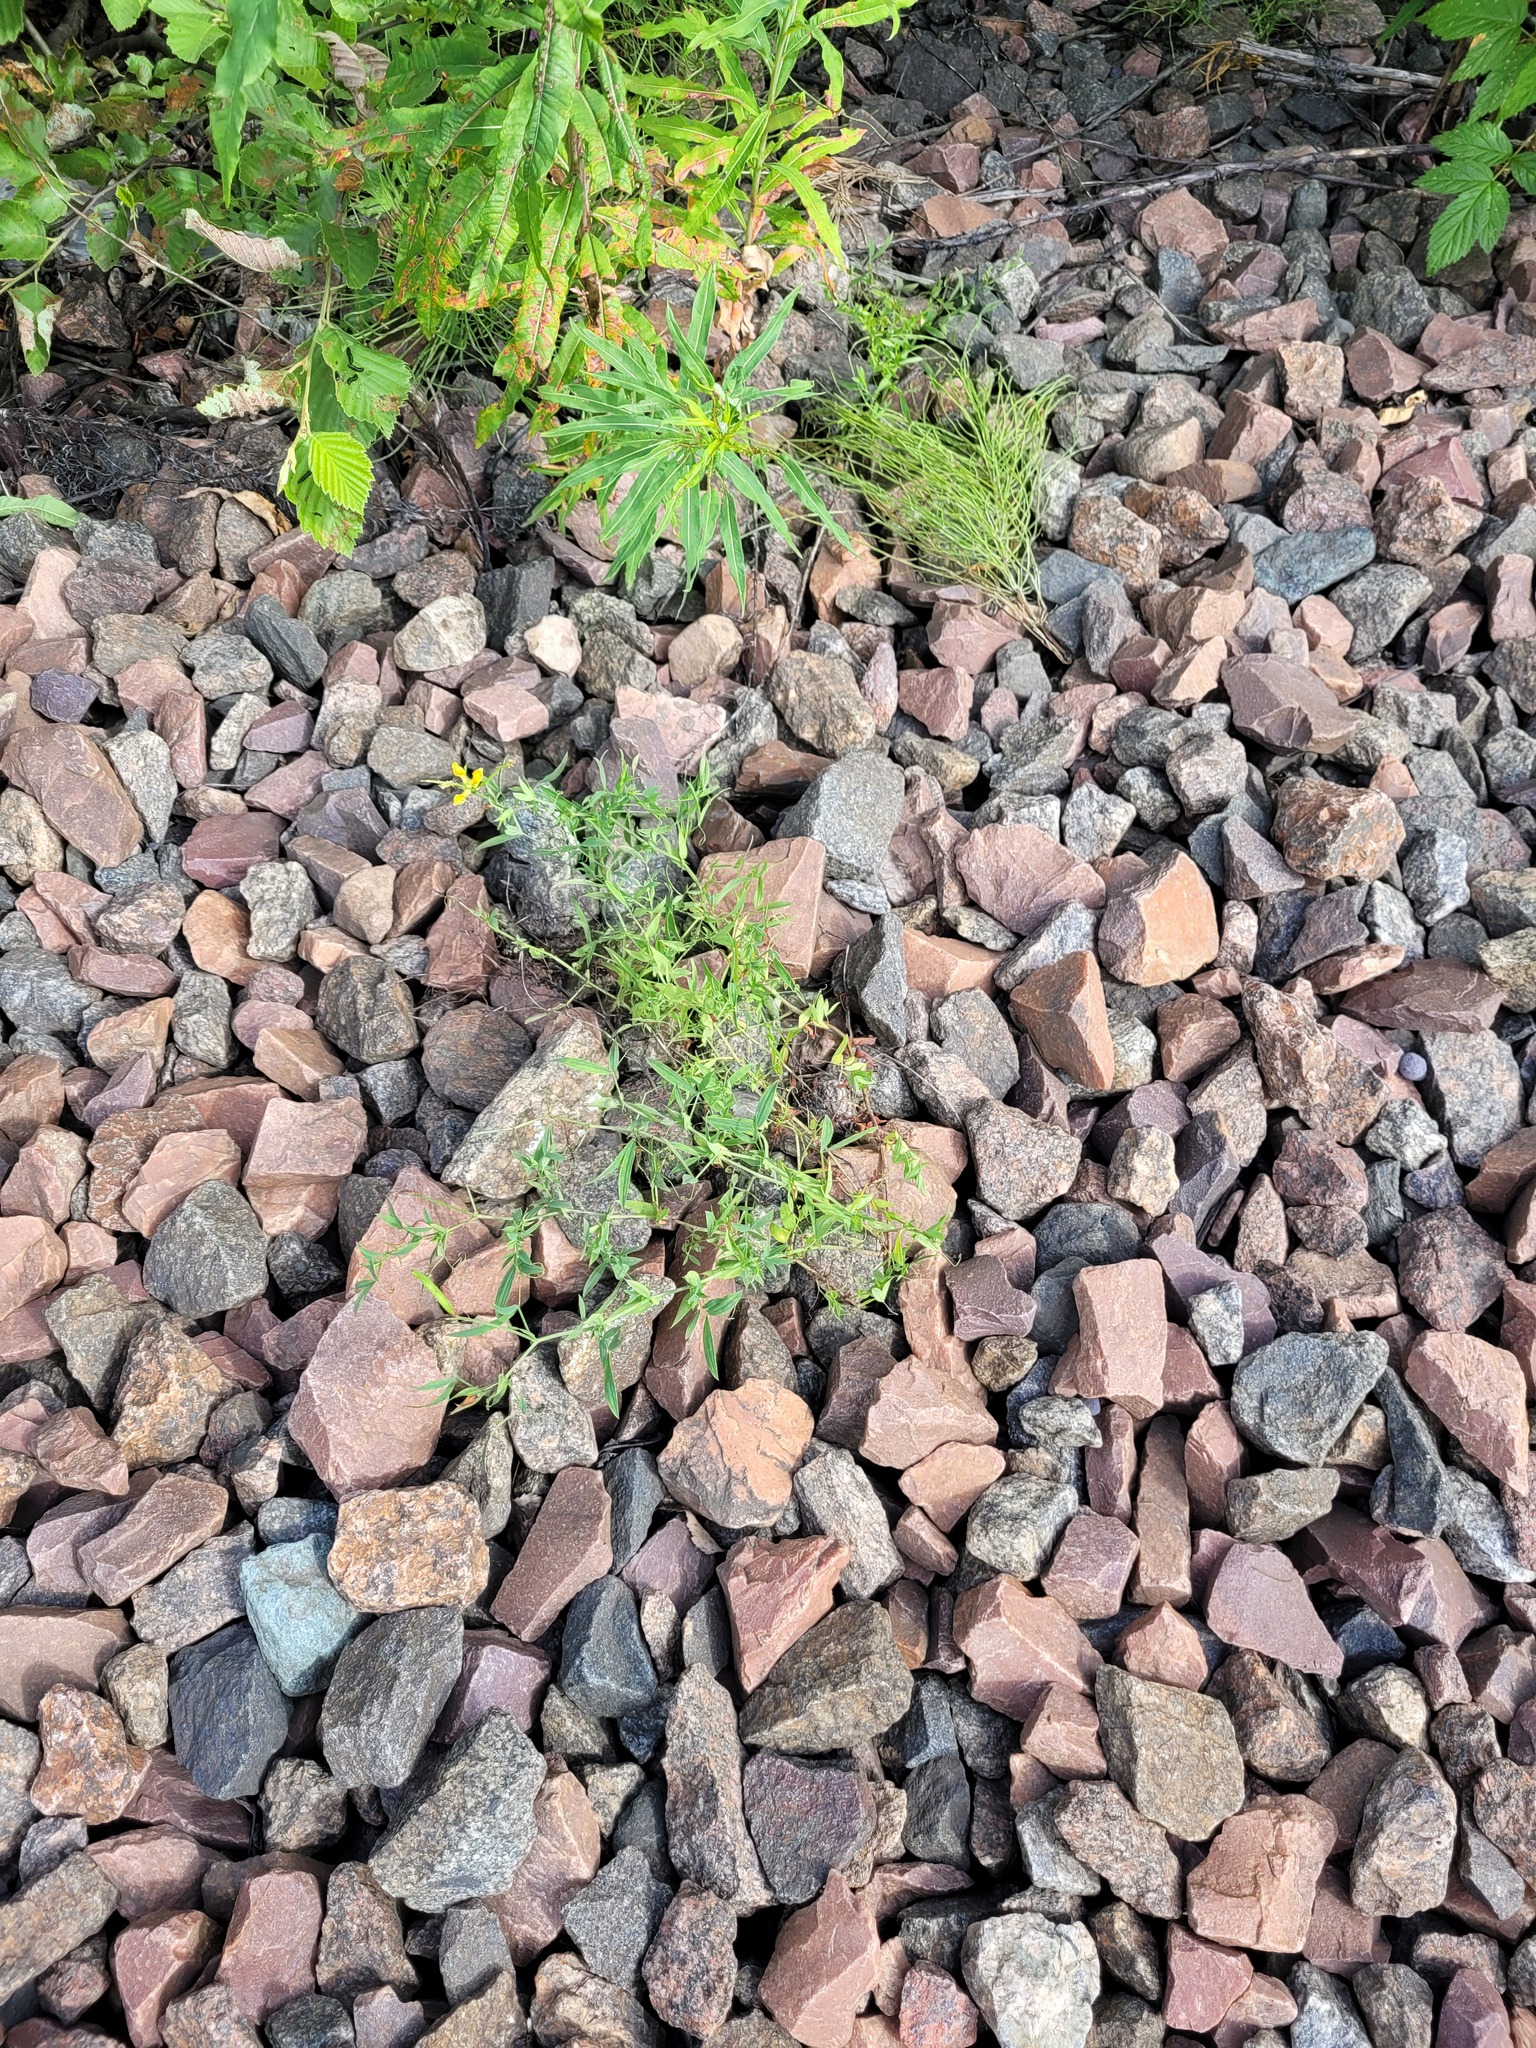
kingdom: Plantae
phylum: Tracheophyta
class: Magnoliopsida
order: Fabales
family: Fabaceae
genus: Lathyrus
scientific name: Lathyrus pratensis
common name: Meadow vetchling
